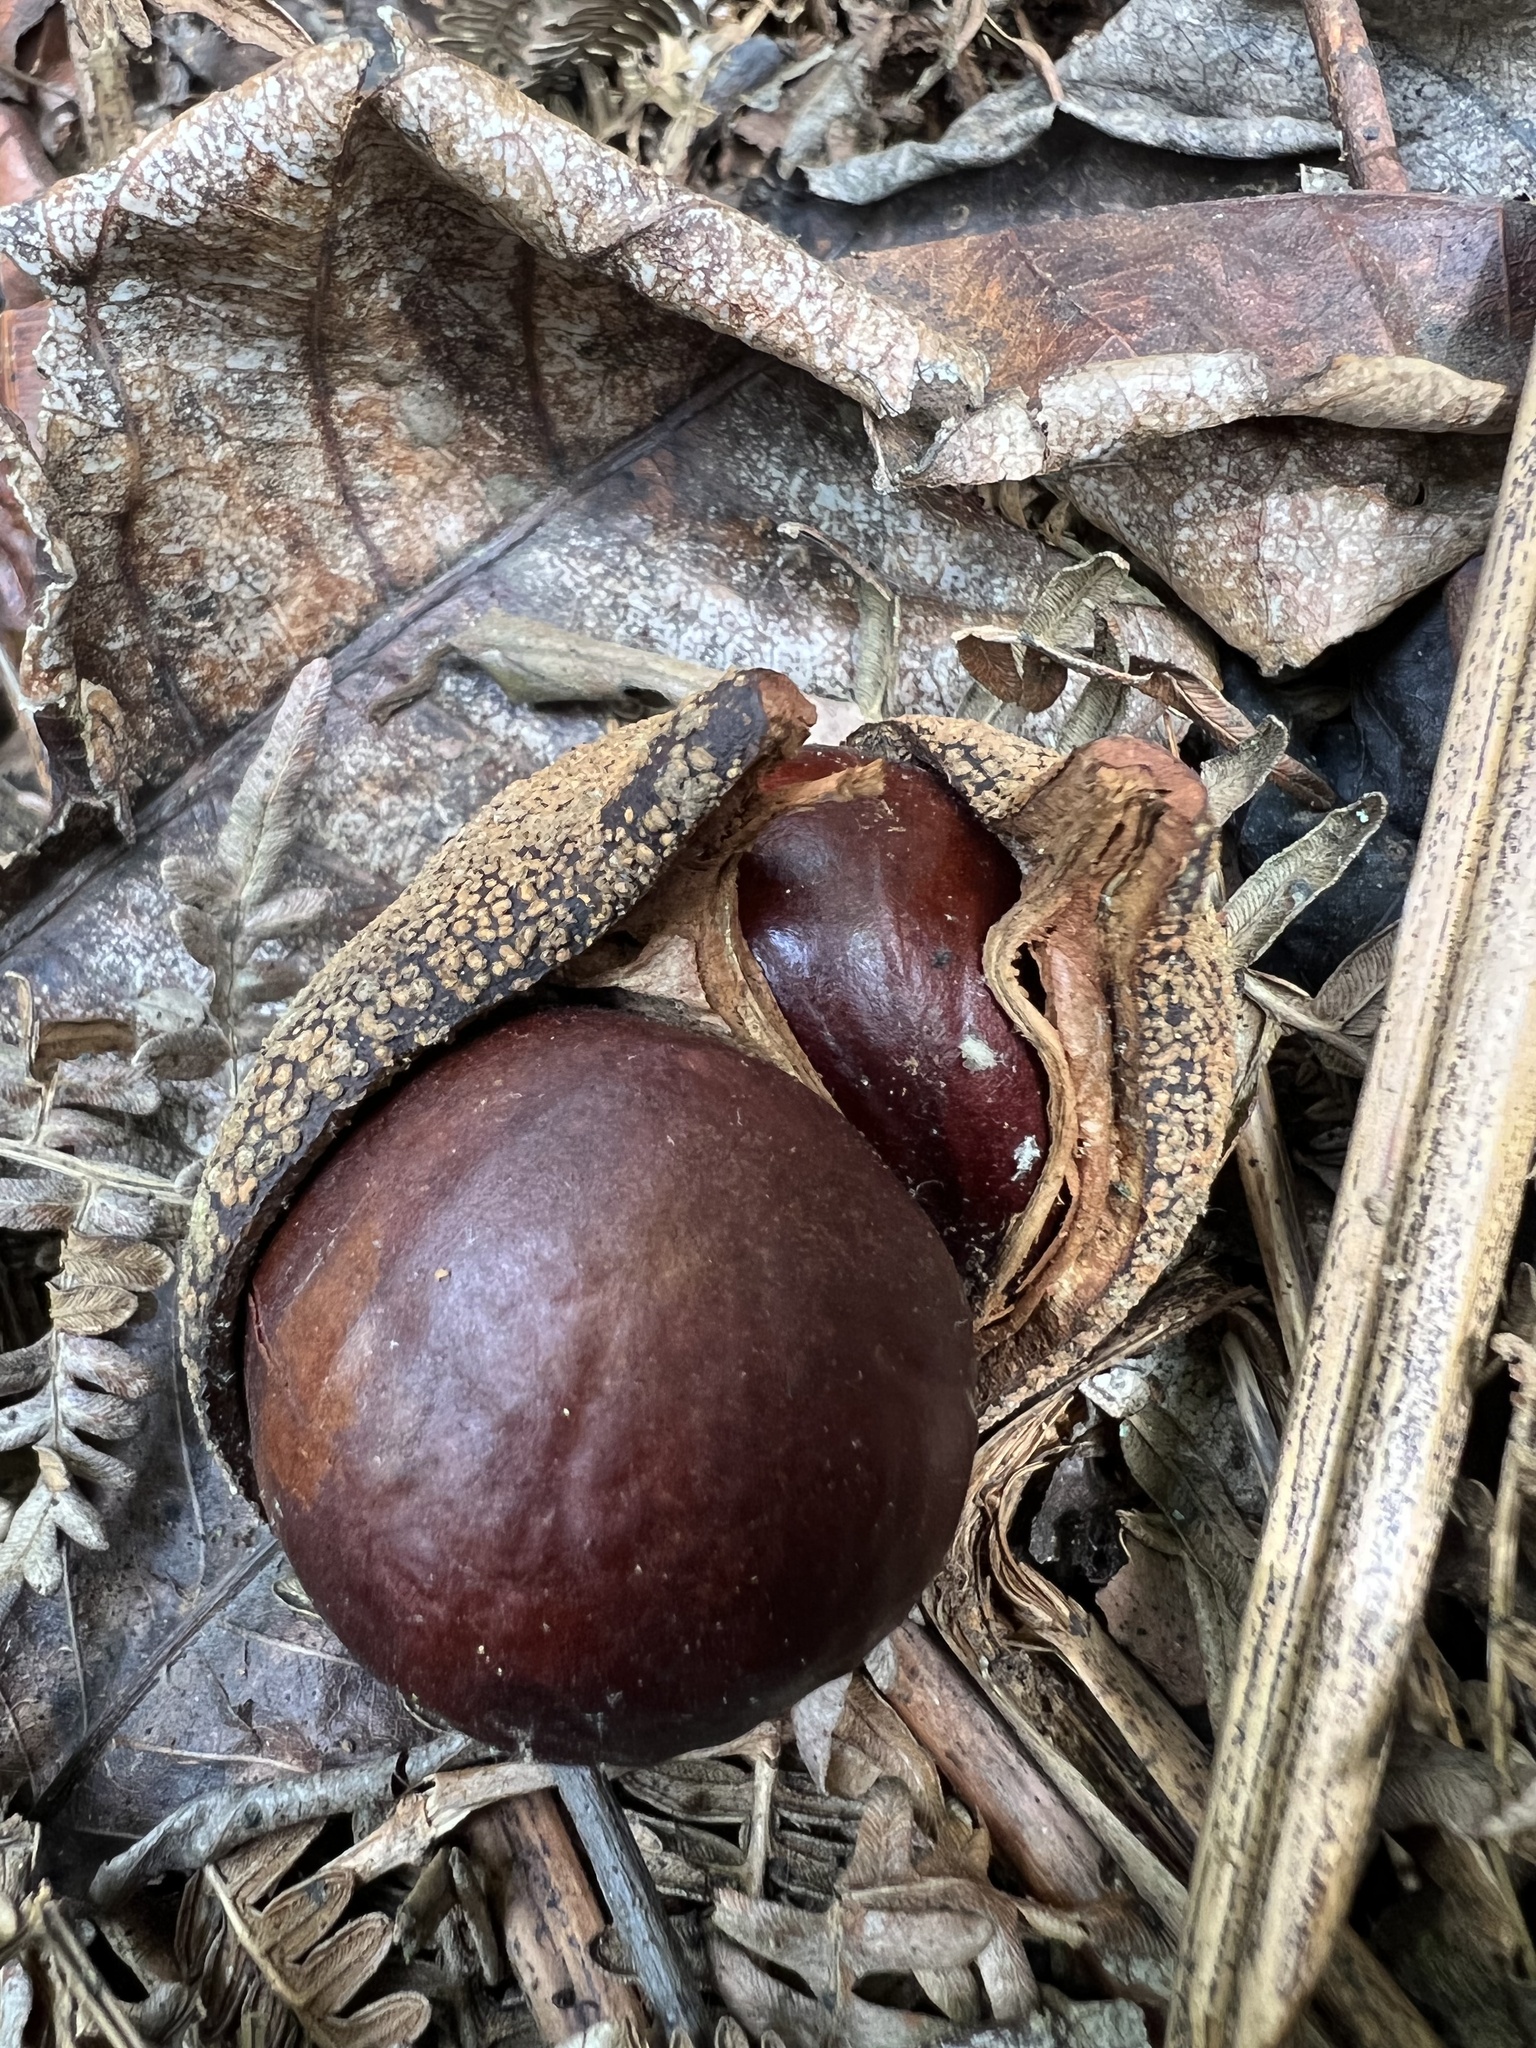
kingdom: Plantae
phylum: Tracheophyta
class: Magnoliopsida
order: Sapindales
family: Sapindaceae
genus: Billia
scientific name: Billia rosea
